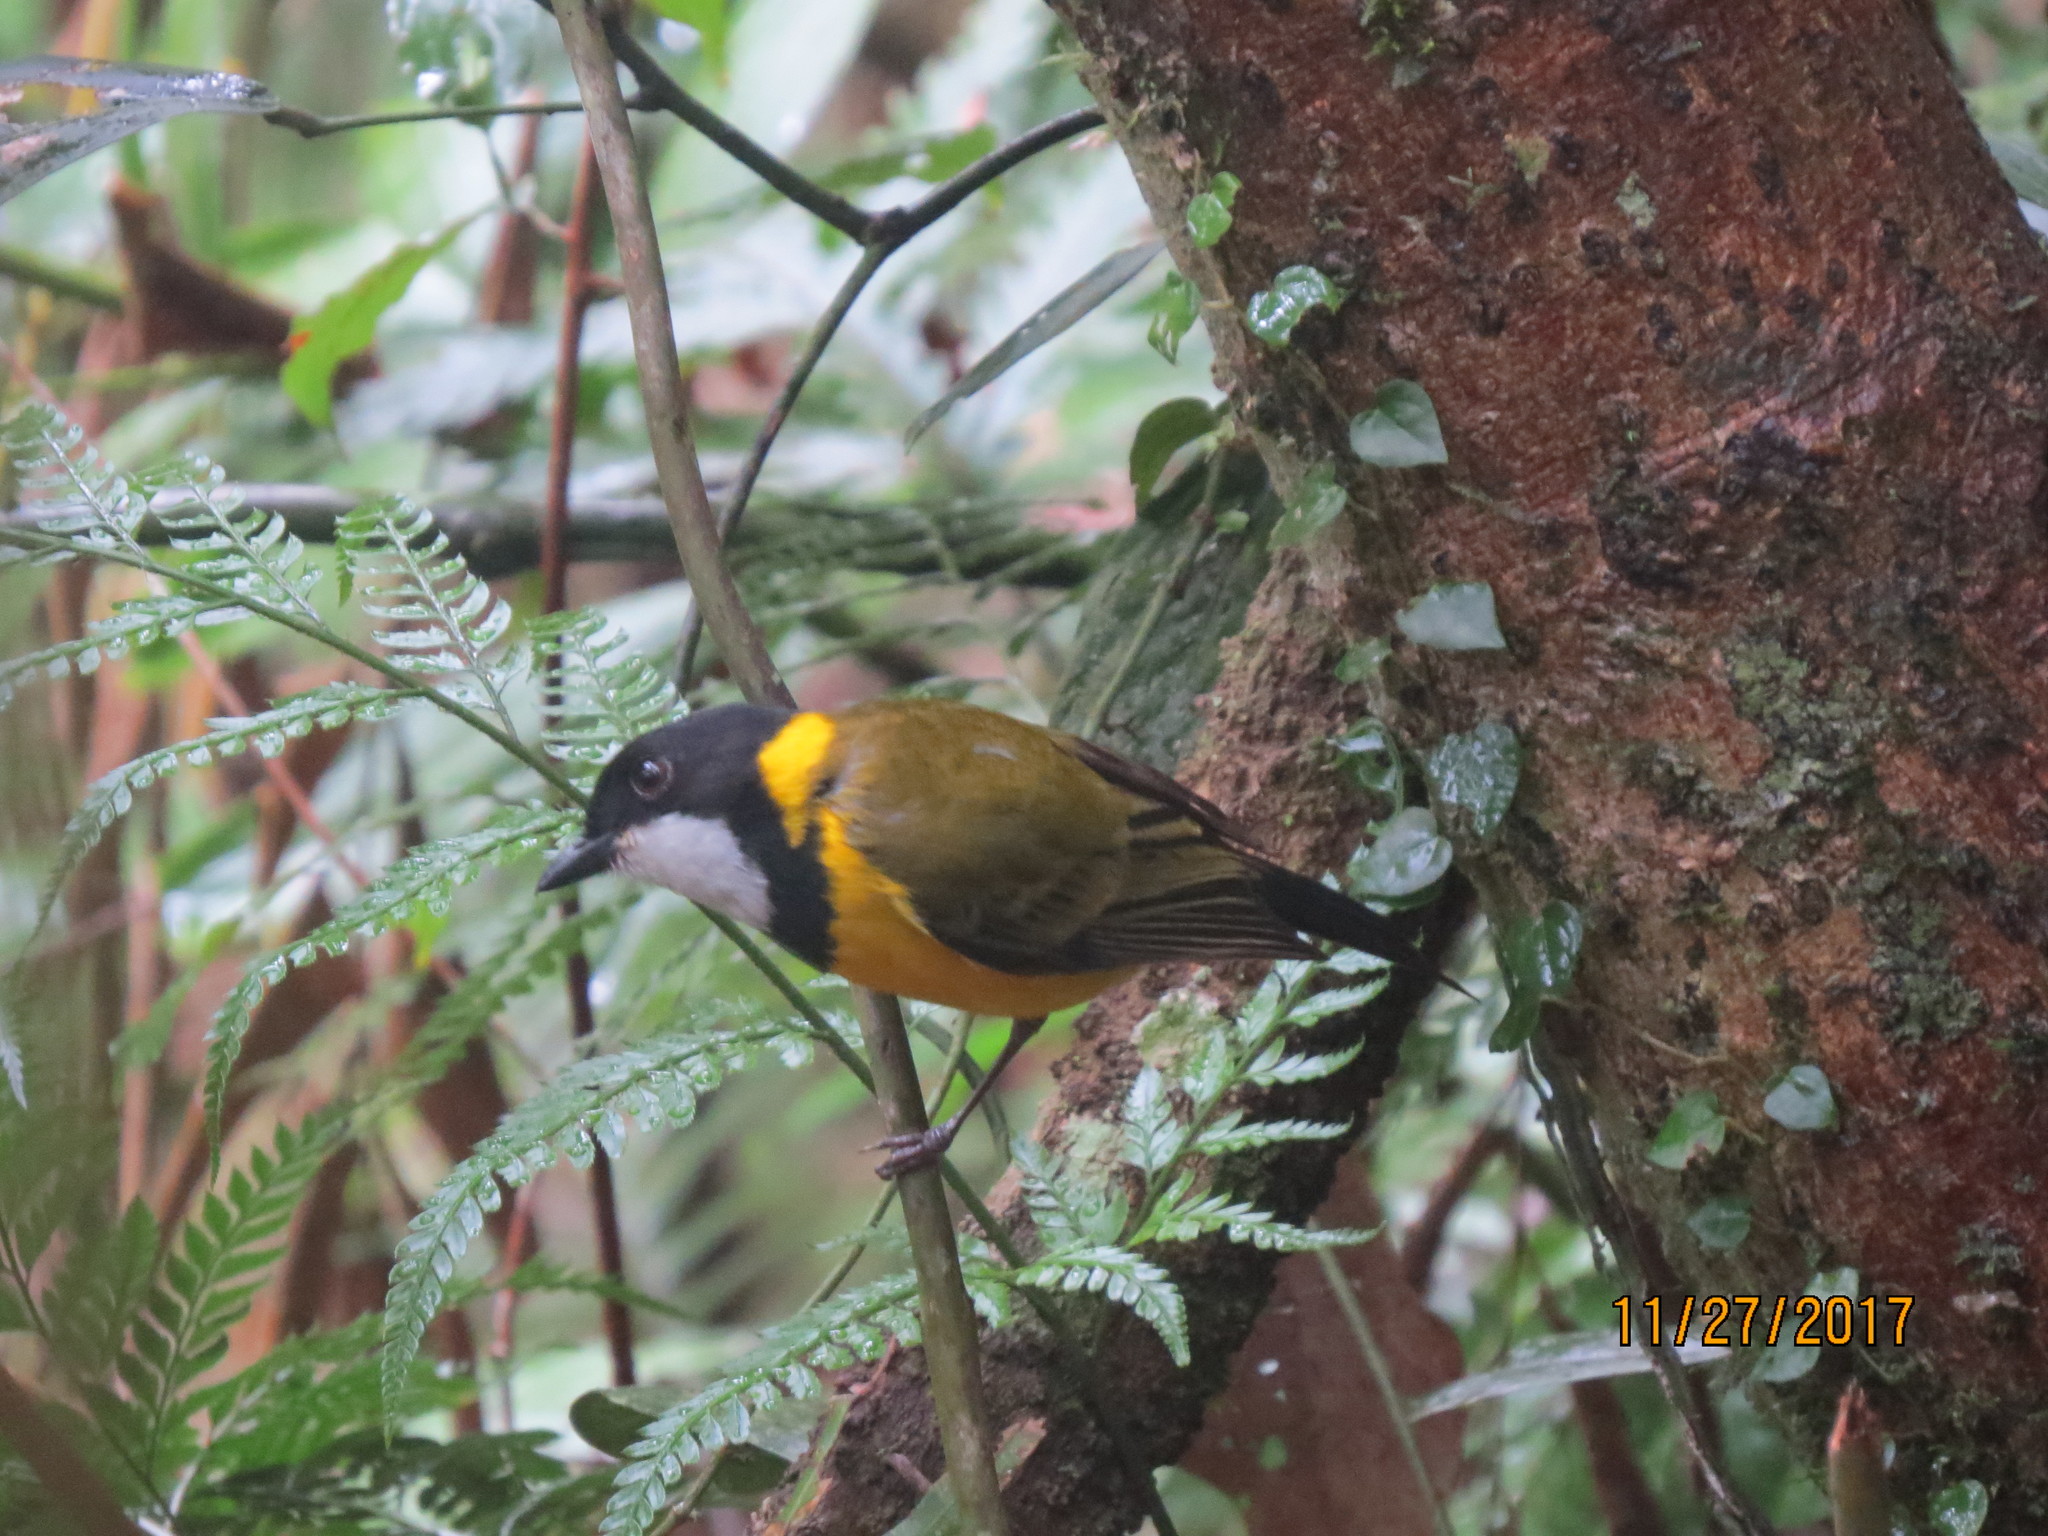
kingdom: Animalia
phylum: Chordata
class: Aves
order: Passeriformes
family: Pachycephalidae
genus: Pachycephala
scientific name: Pachycephala pectoralis
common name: Australian golden whistler
